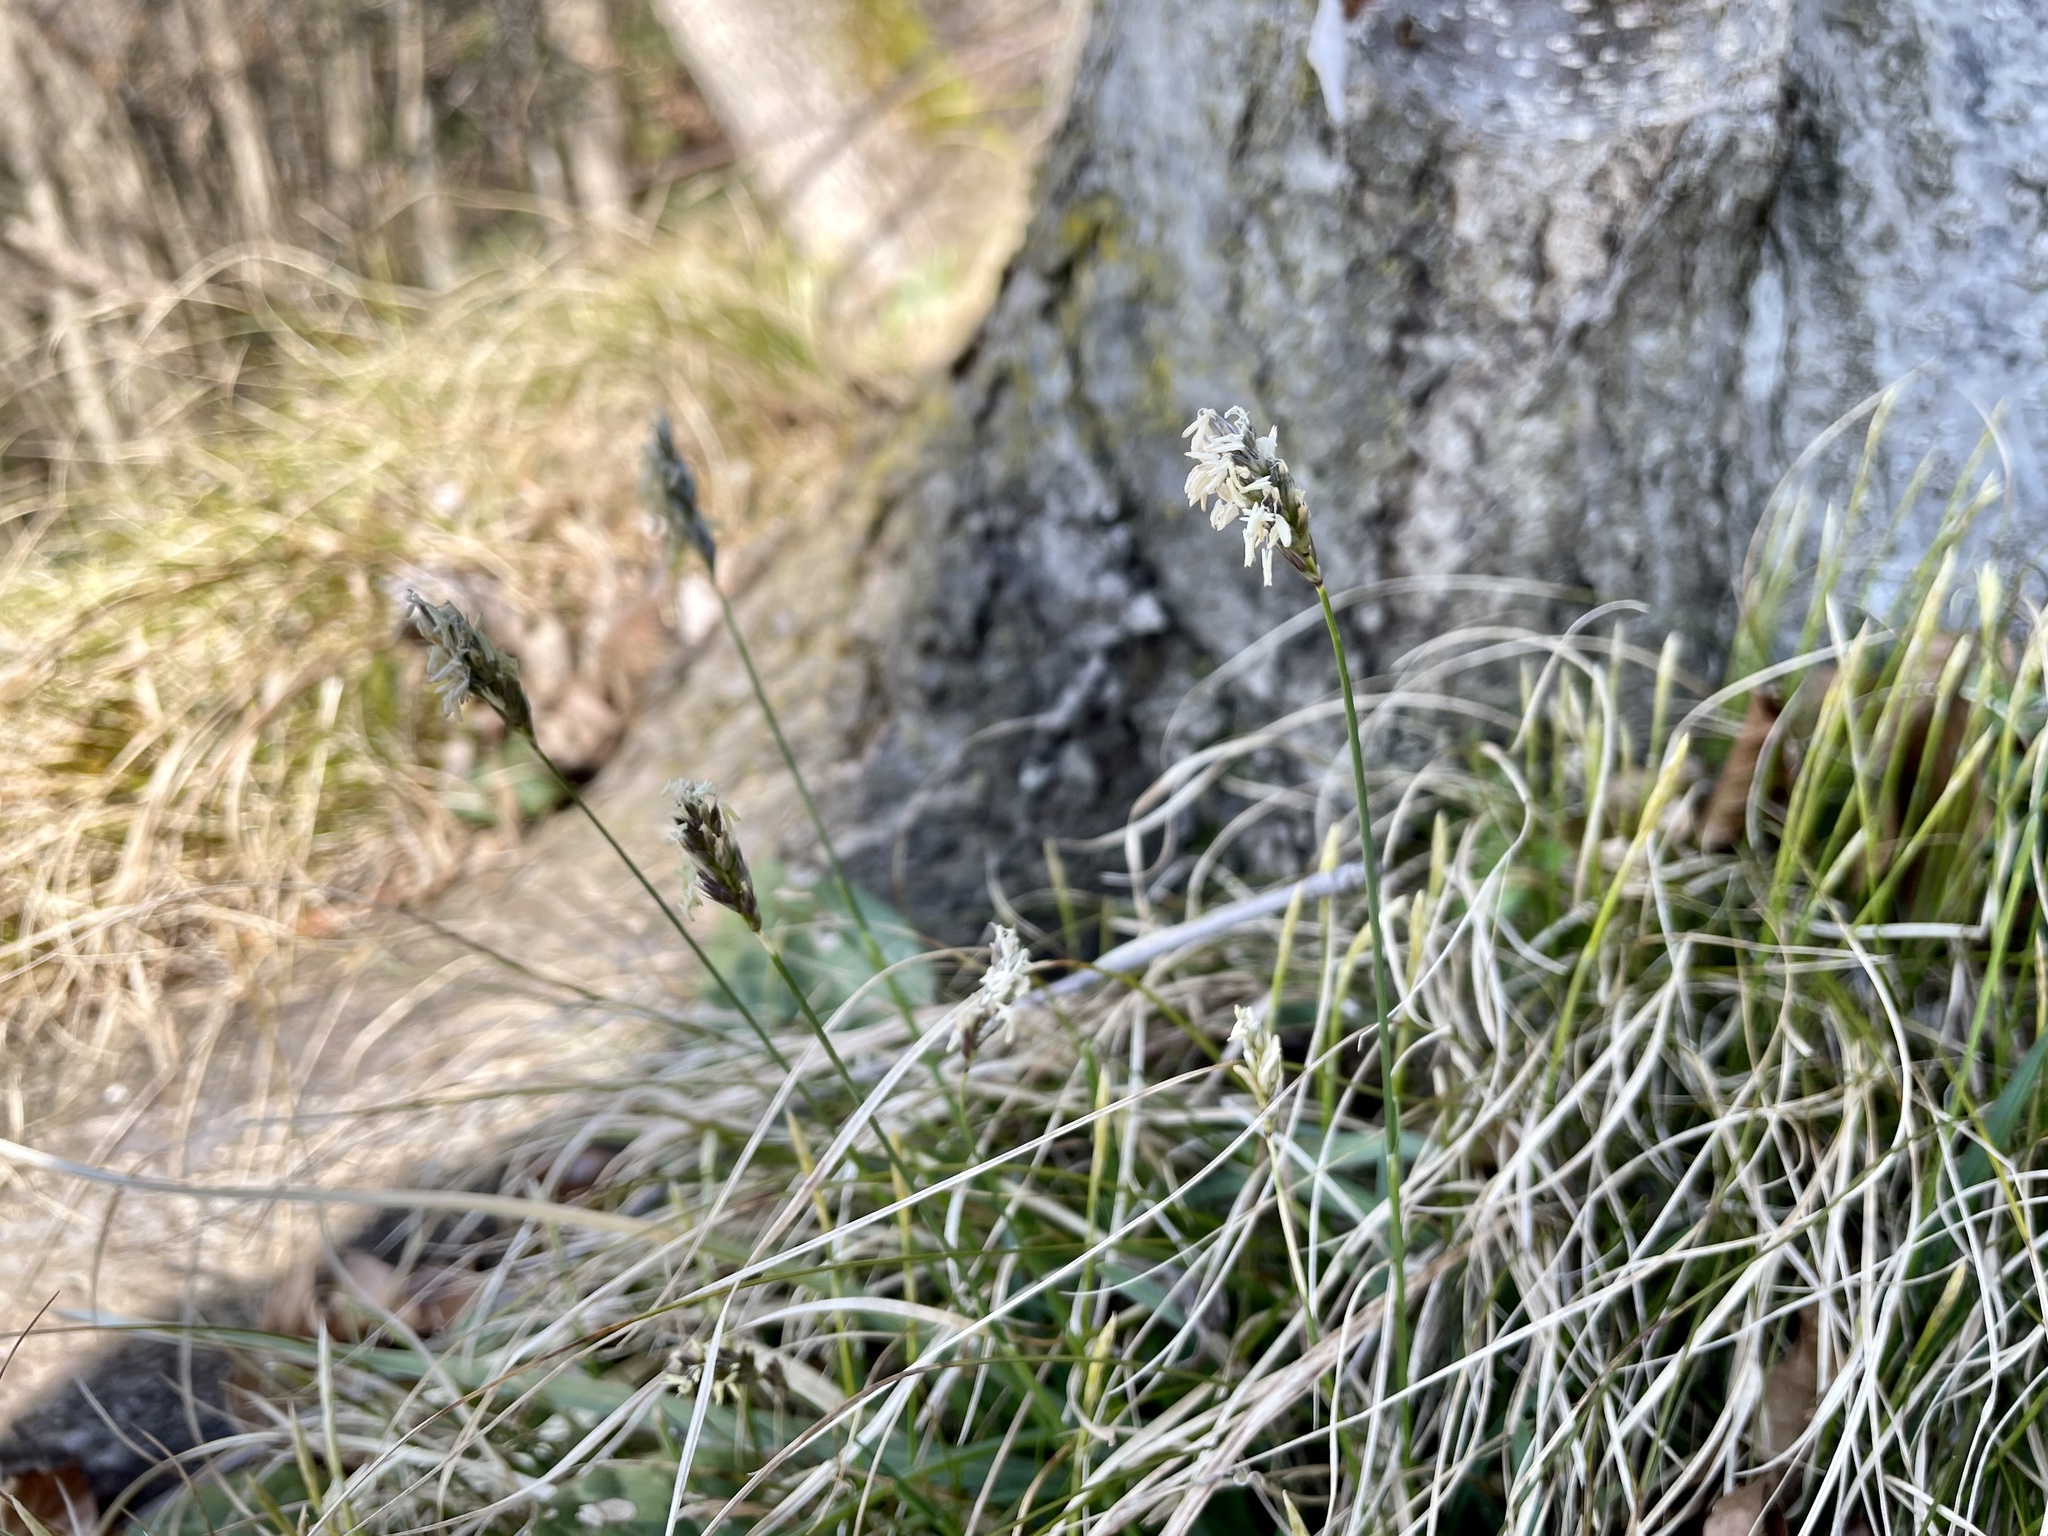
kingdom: Plantae
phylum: Tracheophyta
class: Liliopsida
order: Poales
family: Poaceae
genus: Sesleria
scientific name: Sesleria caerulea
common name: Blue moor-grass
